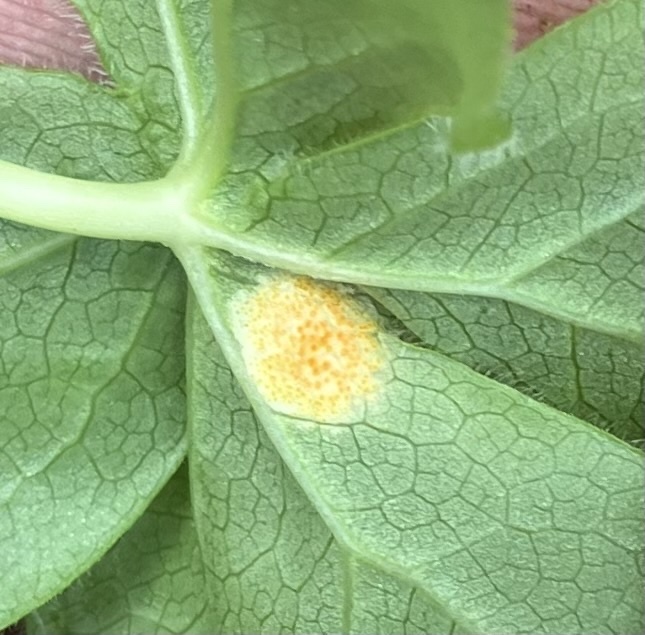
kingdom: Fungi
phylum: Basidiomycota
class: Pucciniomycetes
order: Pucciniales
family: Pucciniaceae
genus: Puccinia
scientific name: Puccinia podophylli
